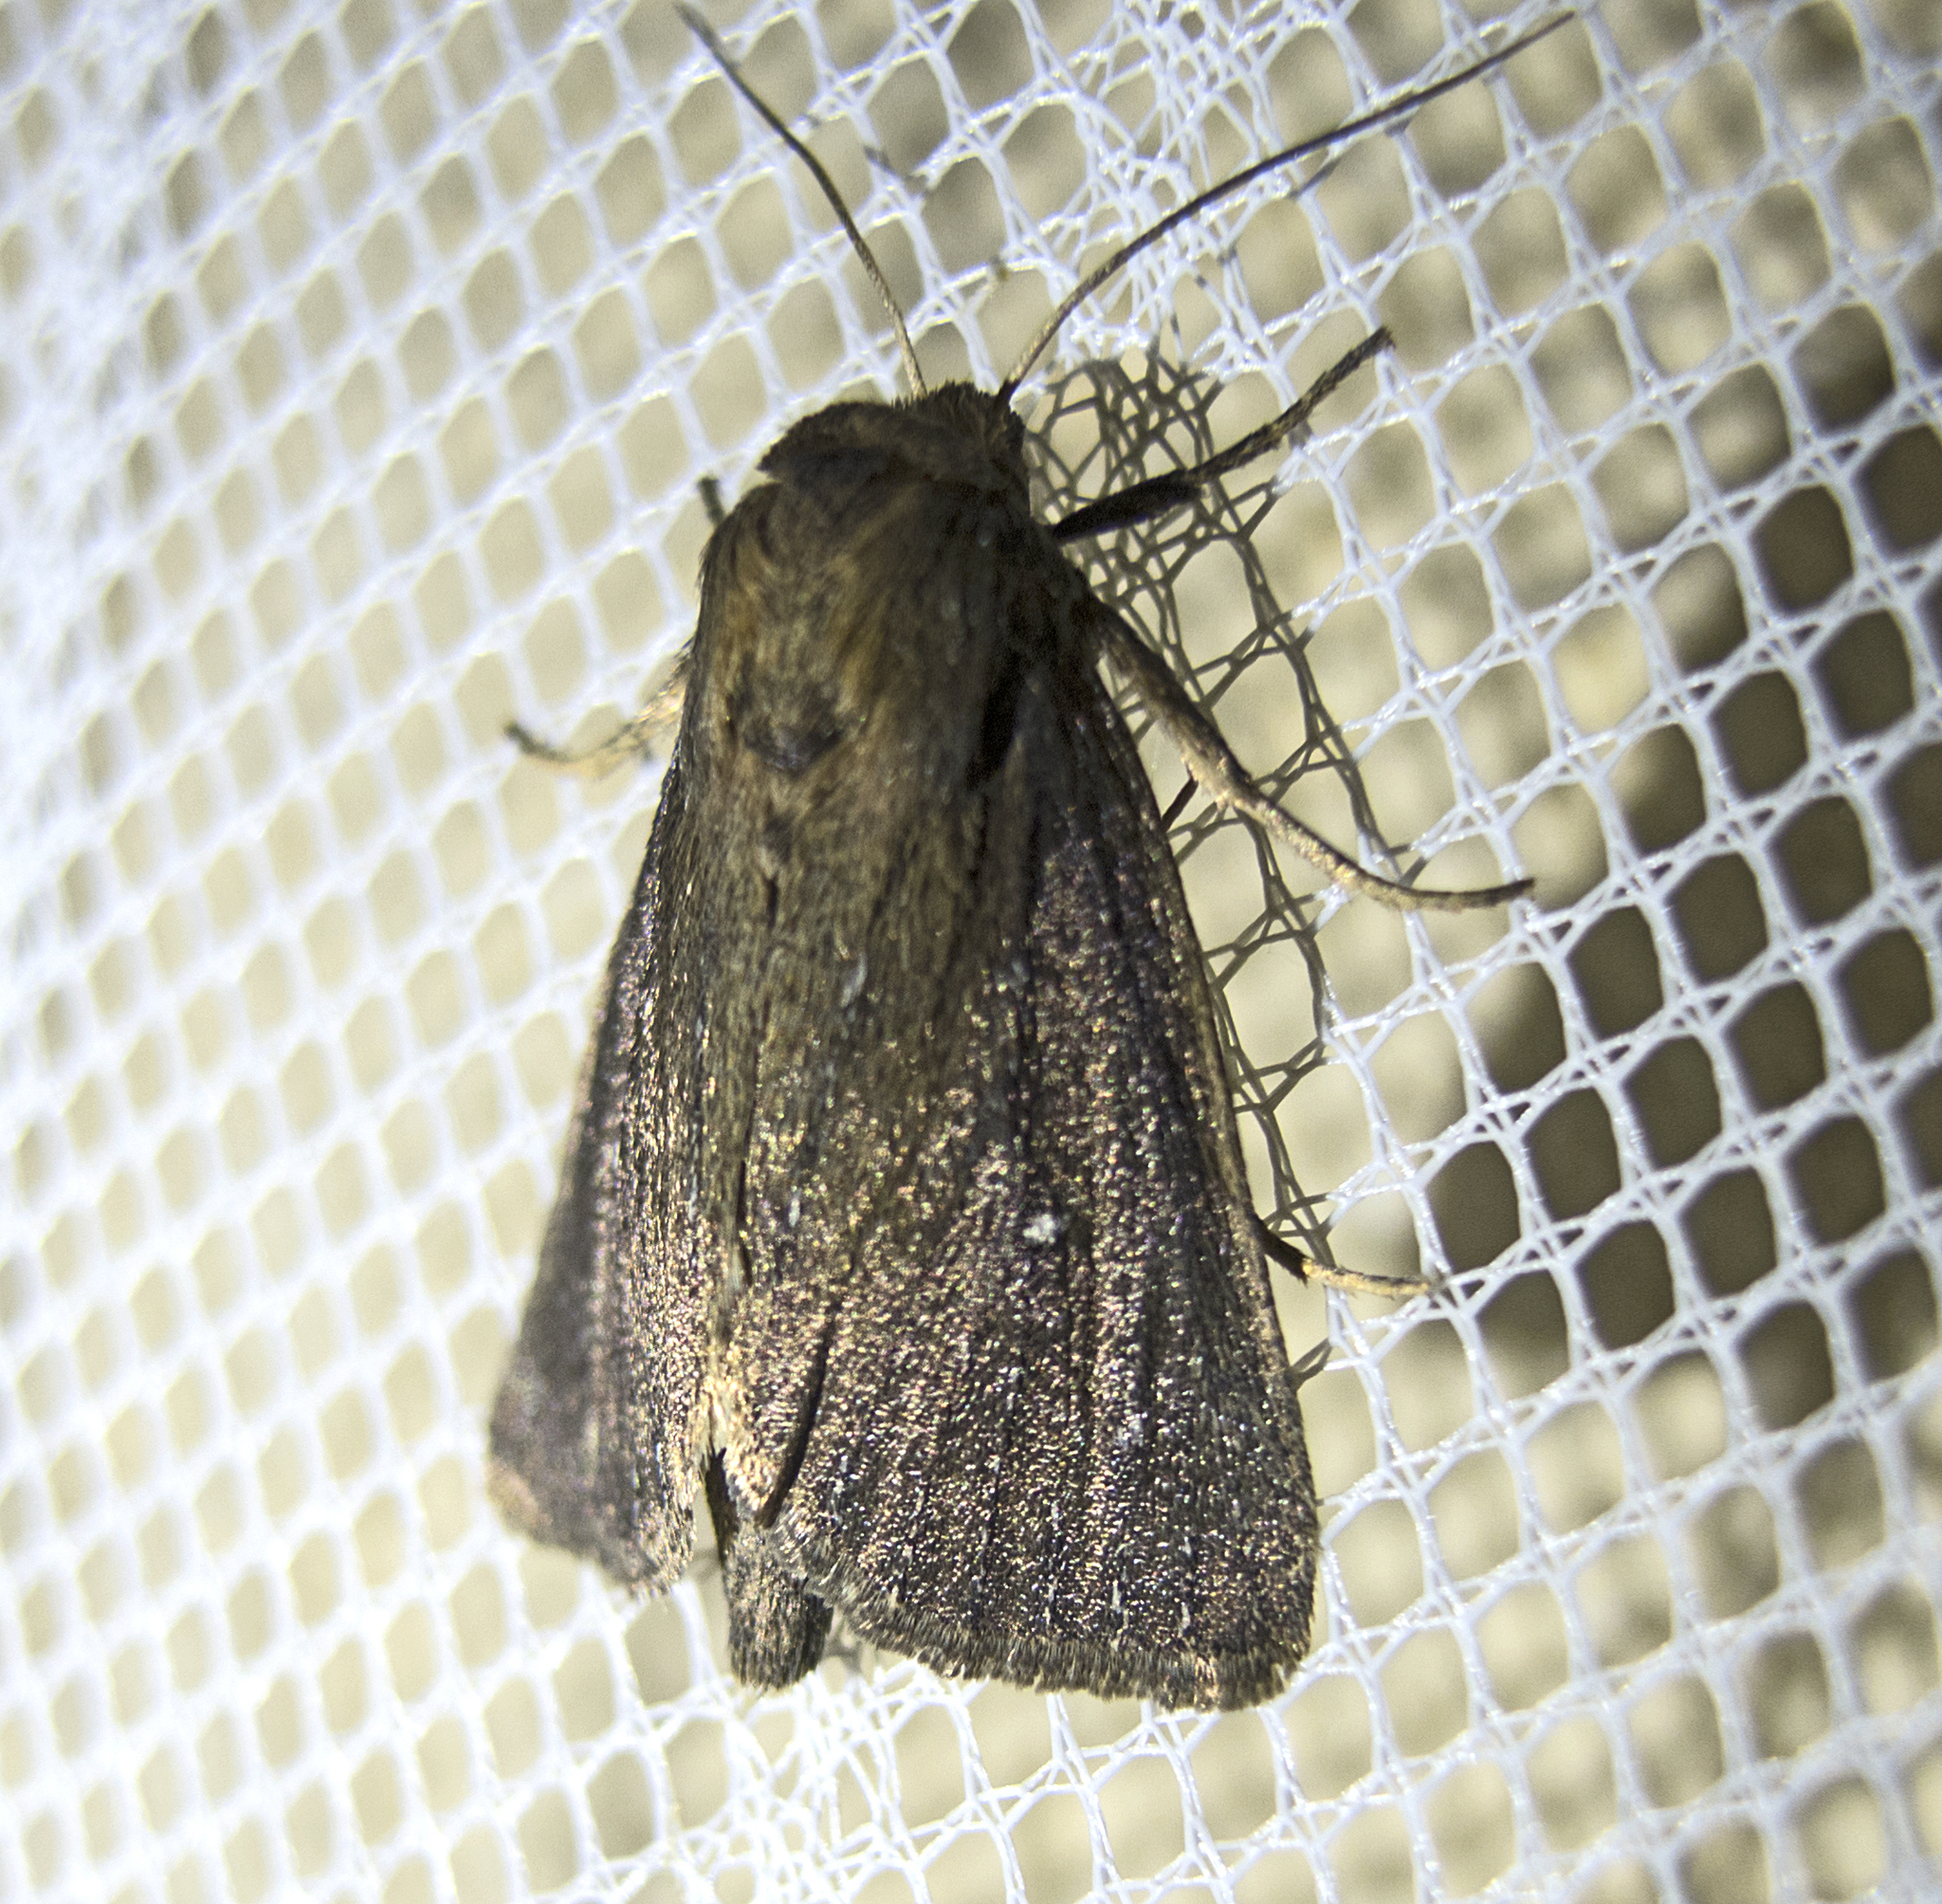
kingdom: Animalia
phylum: Arthropoda
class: Insecta
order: Lepidoptera
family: Noctuidae
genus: Lenisa
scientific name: Lenisa geminipuncta
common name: Twin-spotted wainscot
